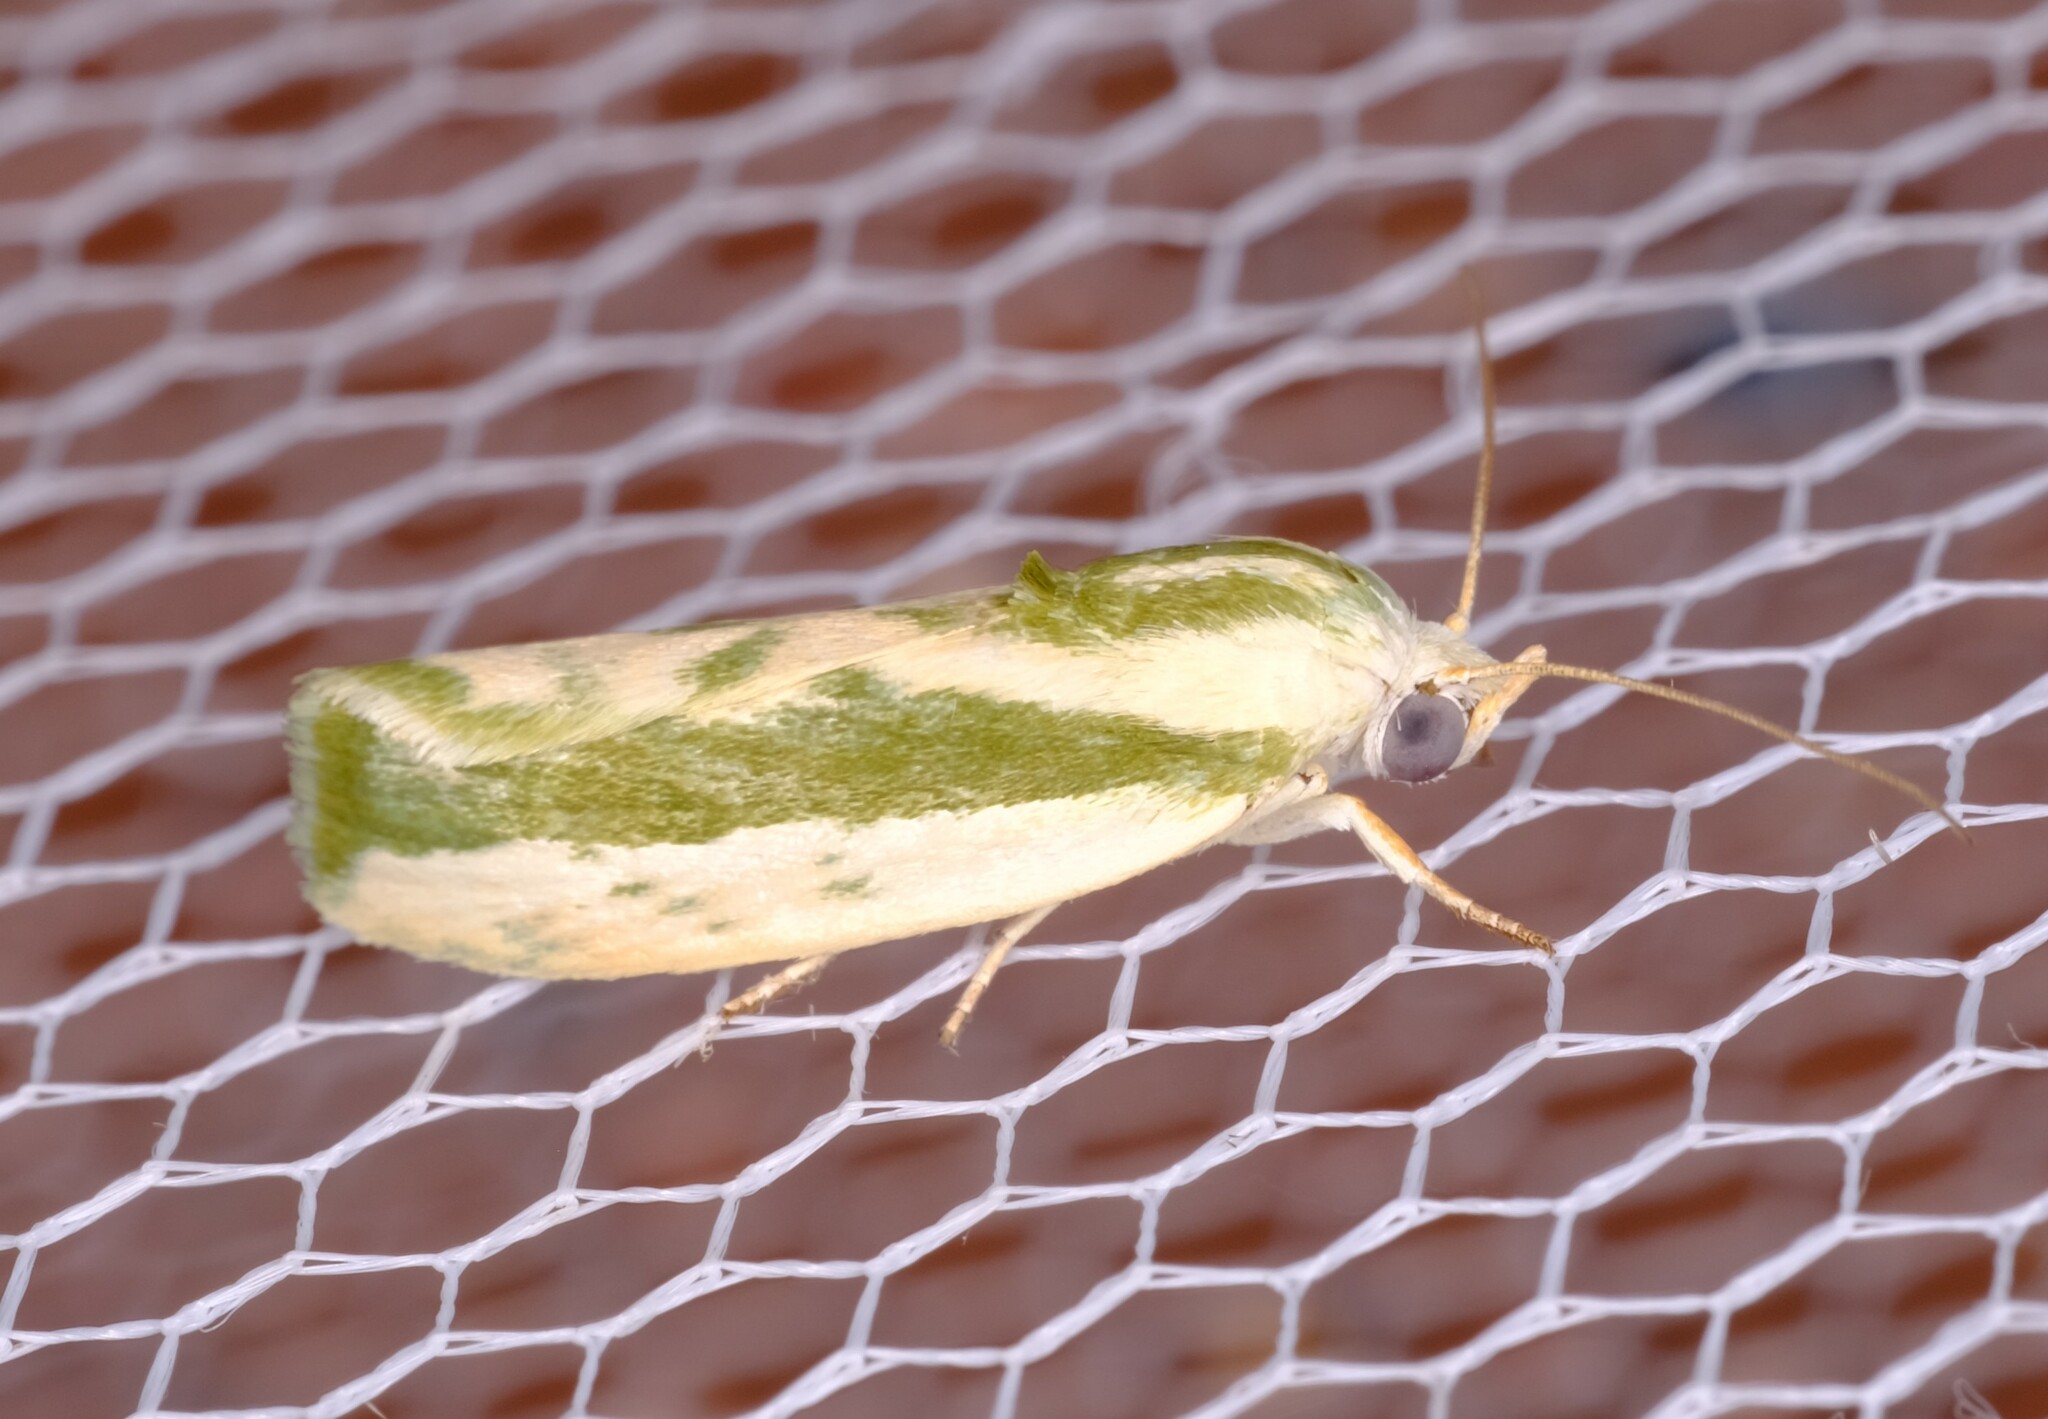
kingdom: Animalia
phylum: Arthropoda
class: Insecta
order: Lepidoptera
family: Nolidae
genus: Earias
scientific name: Earias huegeliana
